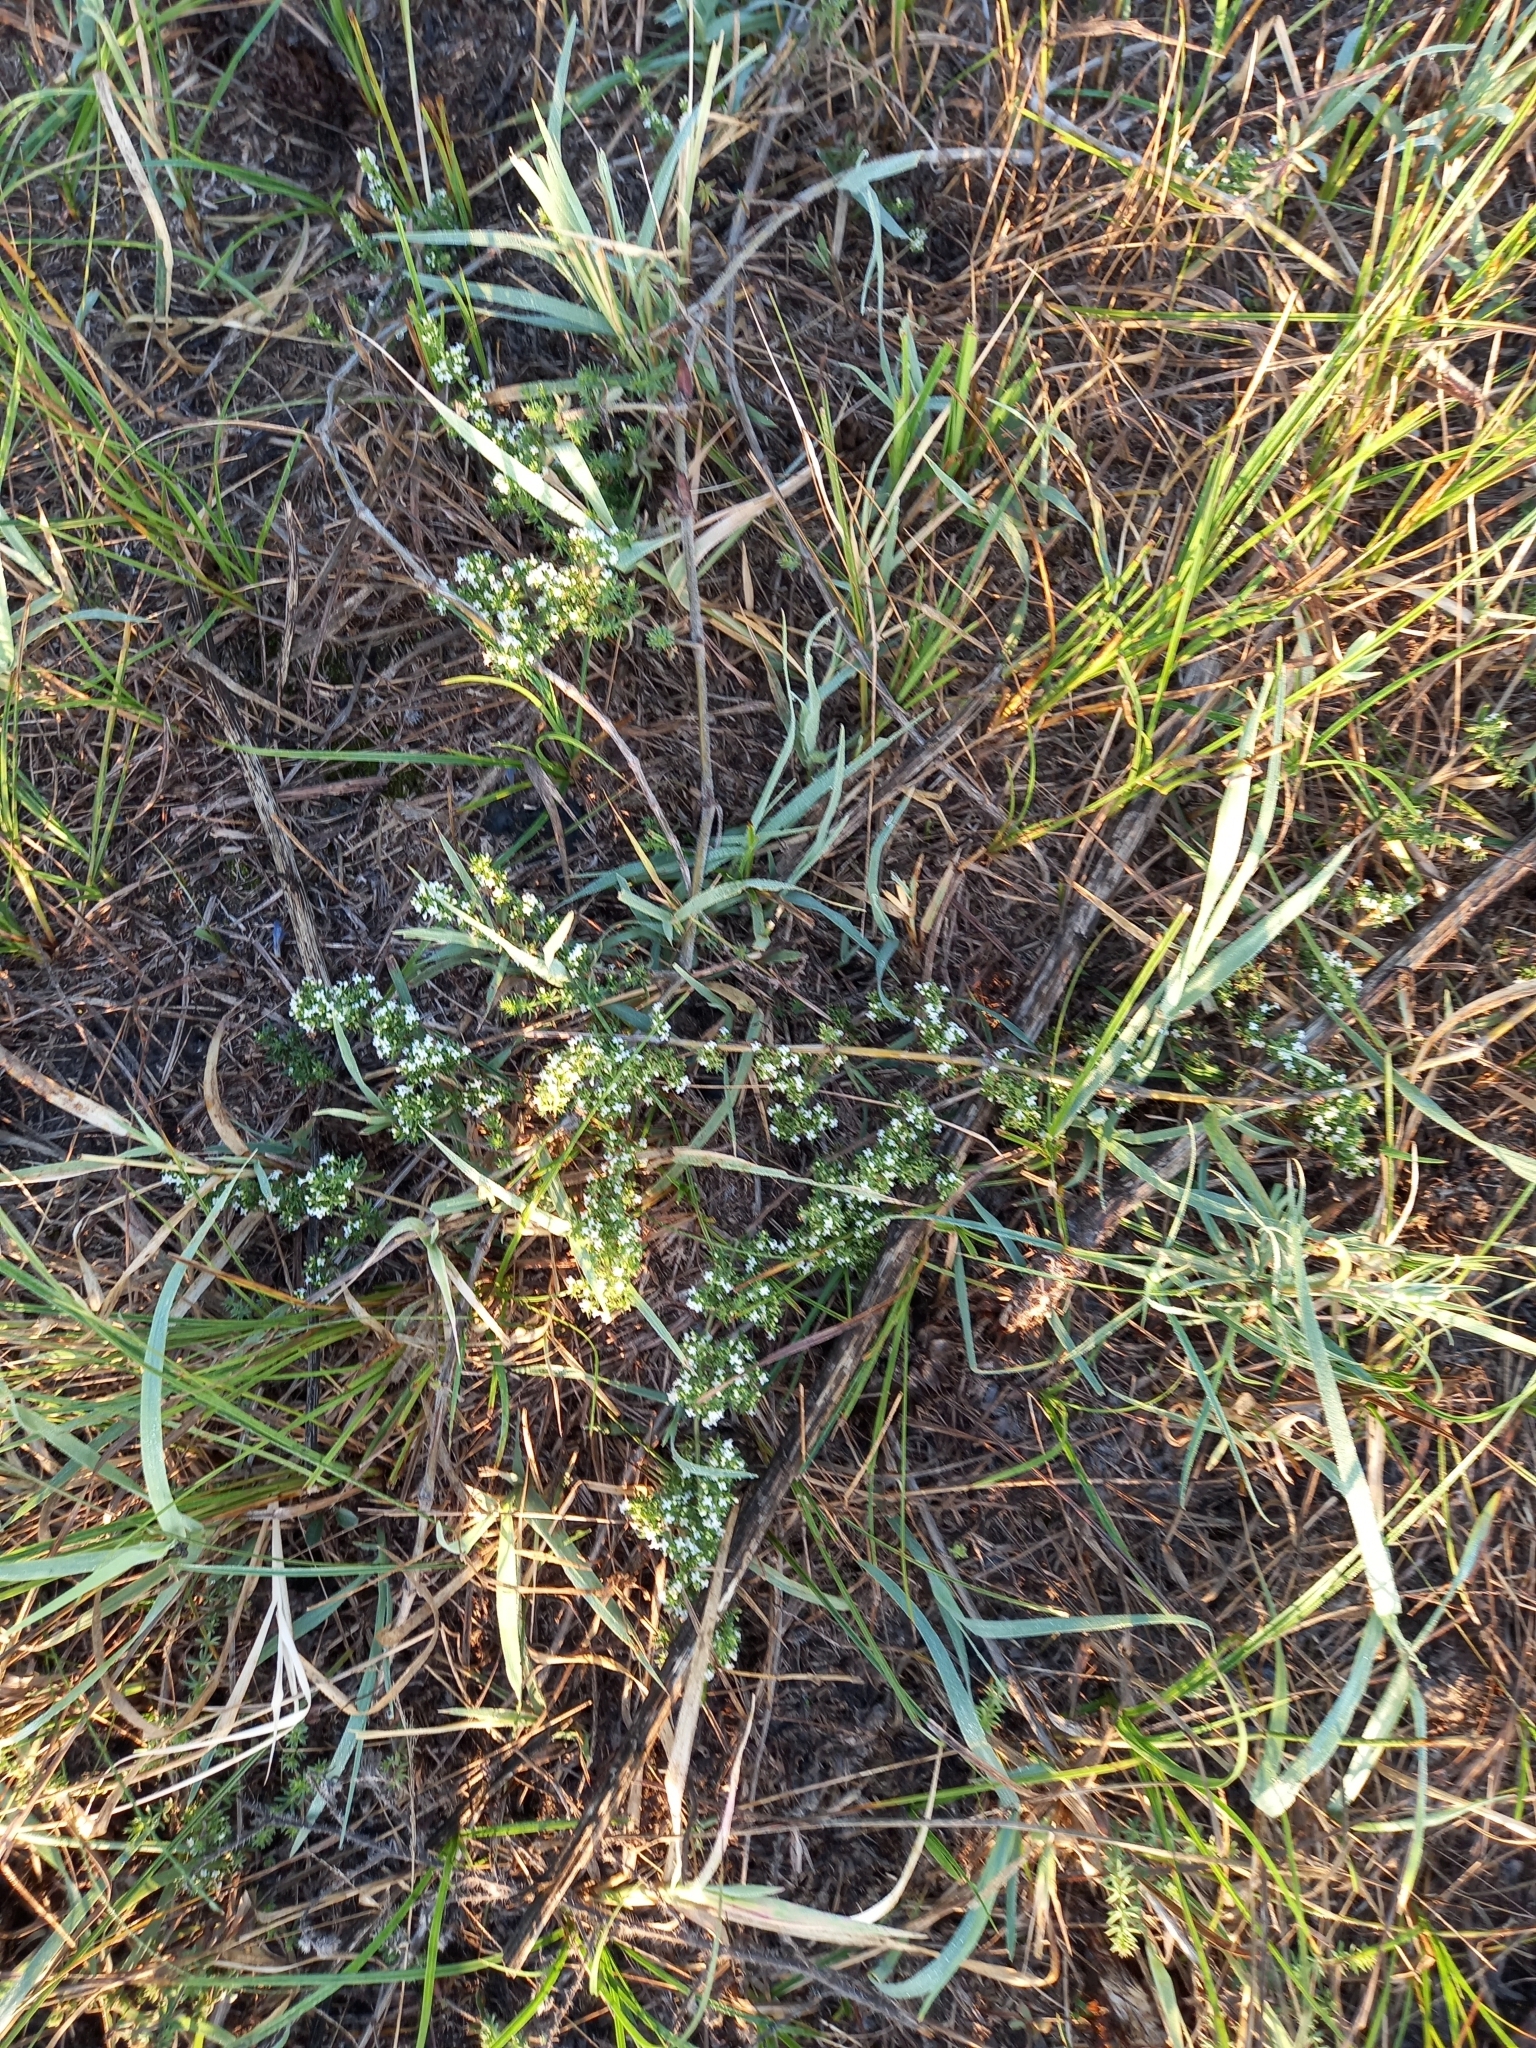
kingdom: Plantae
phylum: Tracheophyta
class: Magnoliopsida
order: Gentianales
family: Rubiaceae
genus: Galium
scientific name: Galium humifusum
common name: Spreading bedstraw
